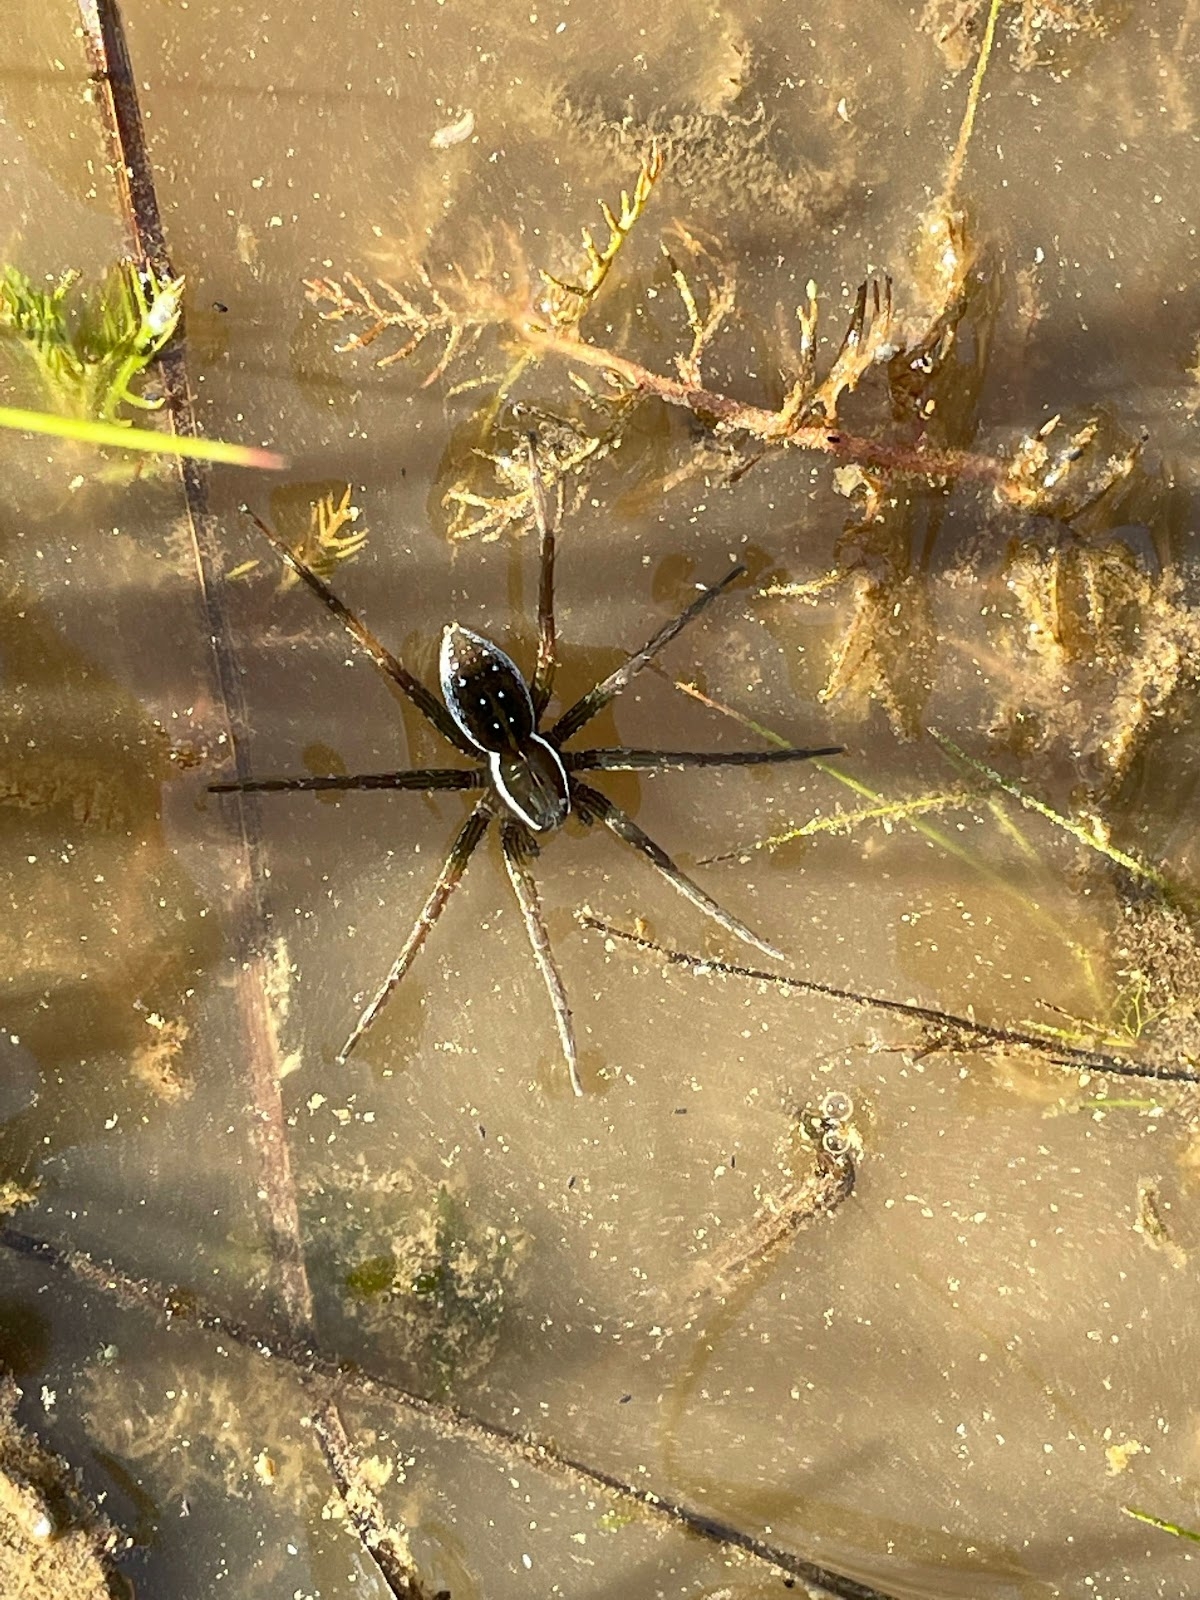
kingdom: Animalia
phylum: Arthropoda
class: Arachnida
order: Araneae
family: Pisauridae
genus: Dolomedes
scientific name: Dolomedes triton
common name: Six-spotted fishing spider
